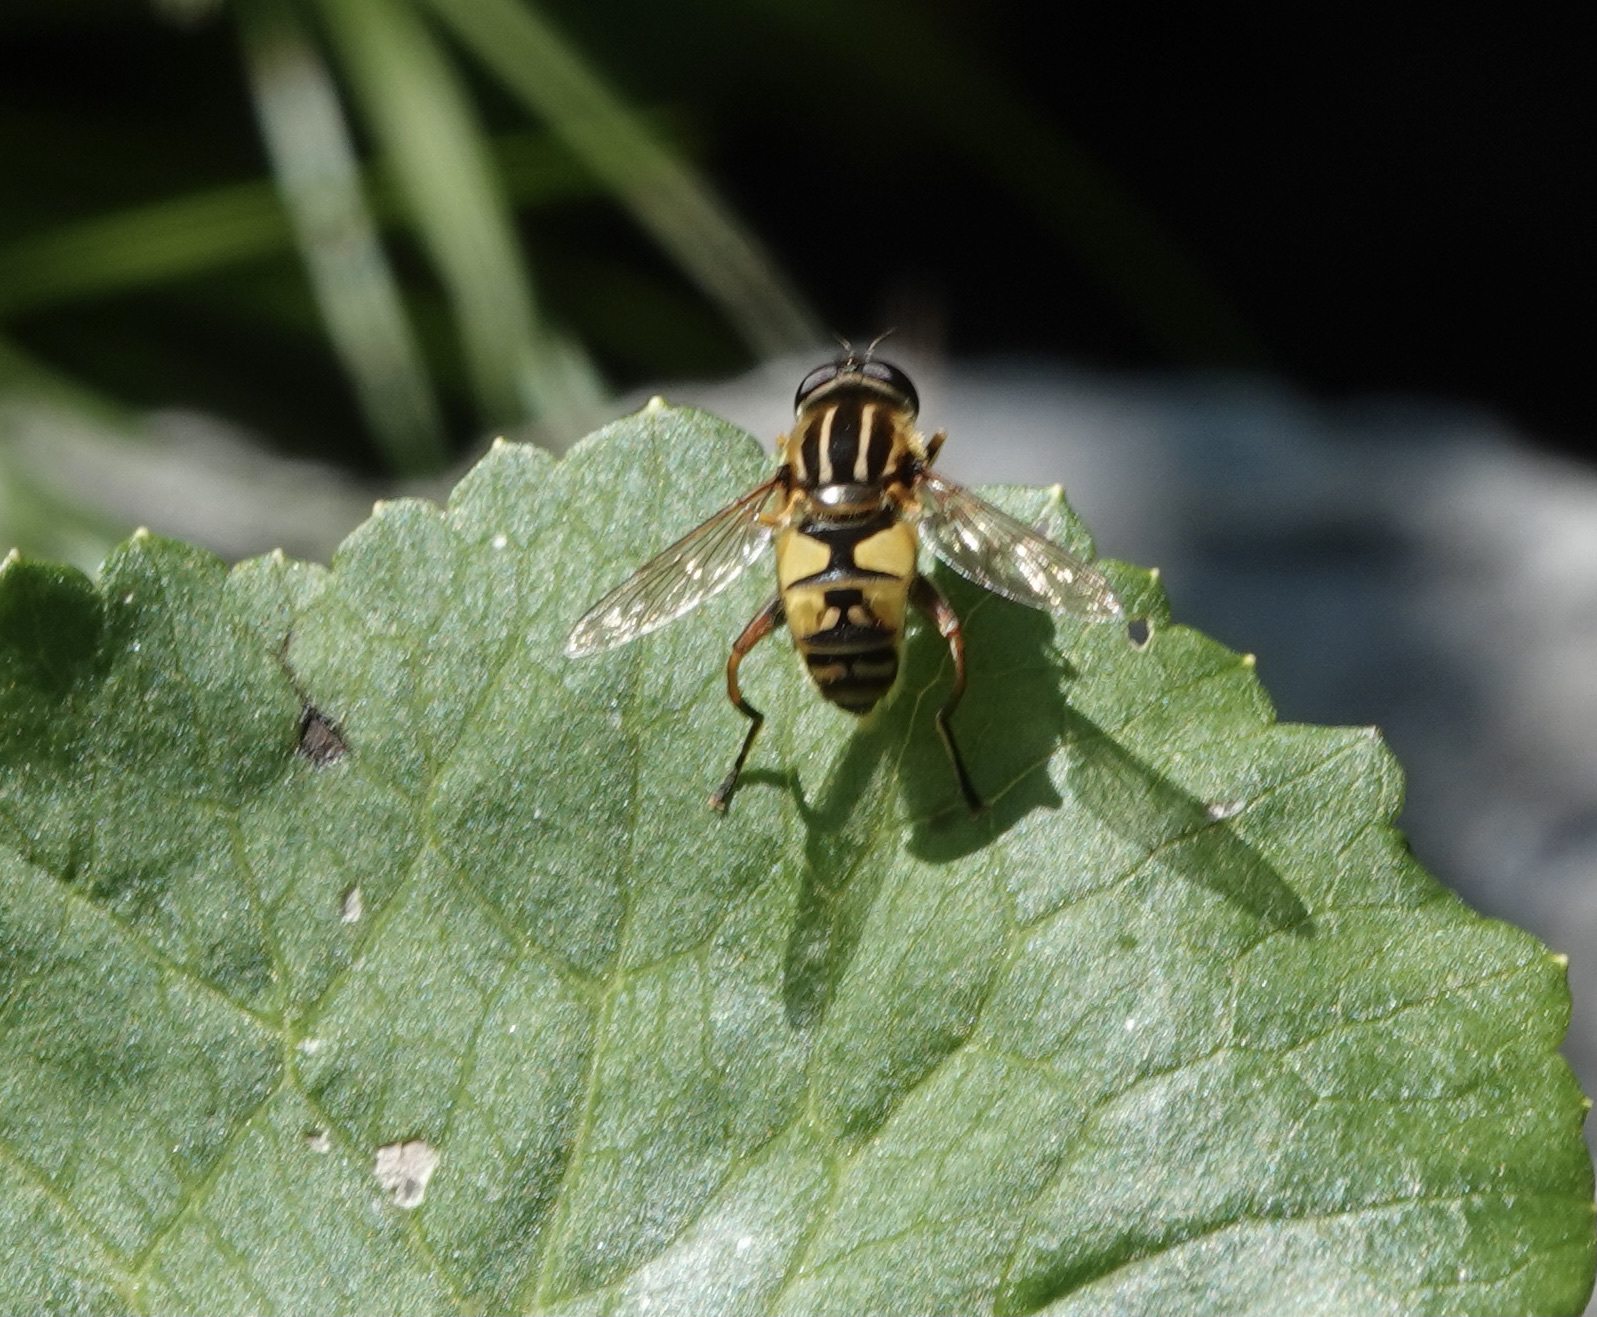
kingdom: Animalia
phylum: Arthropoda
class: Insecta
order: Diptera
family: Syrphidae
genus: Helophilus
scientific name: Helophilus pendulus
